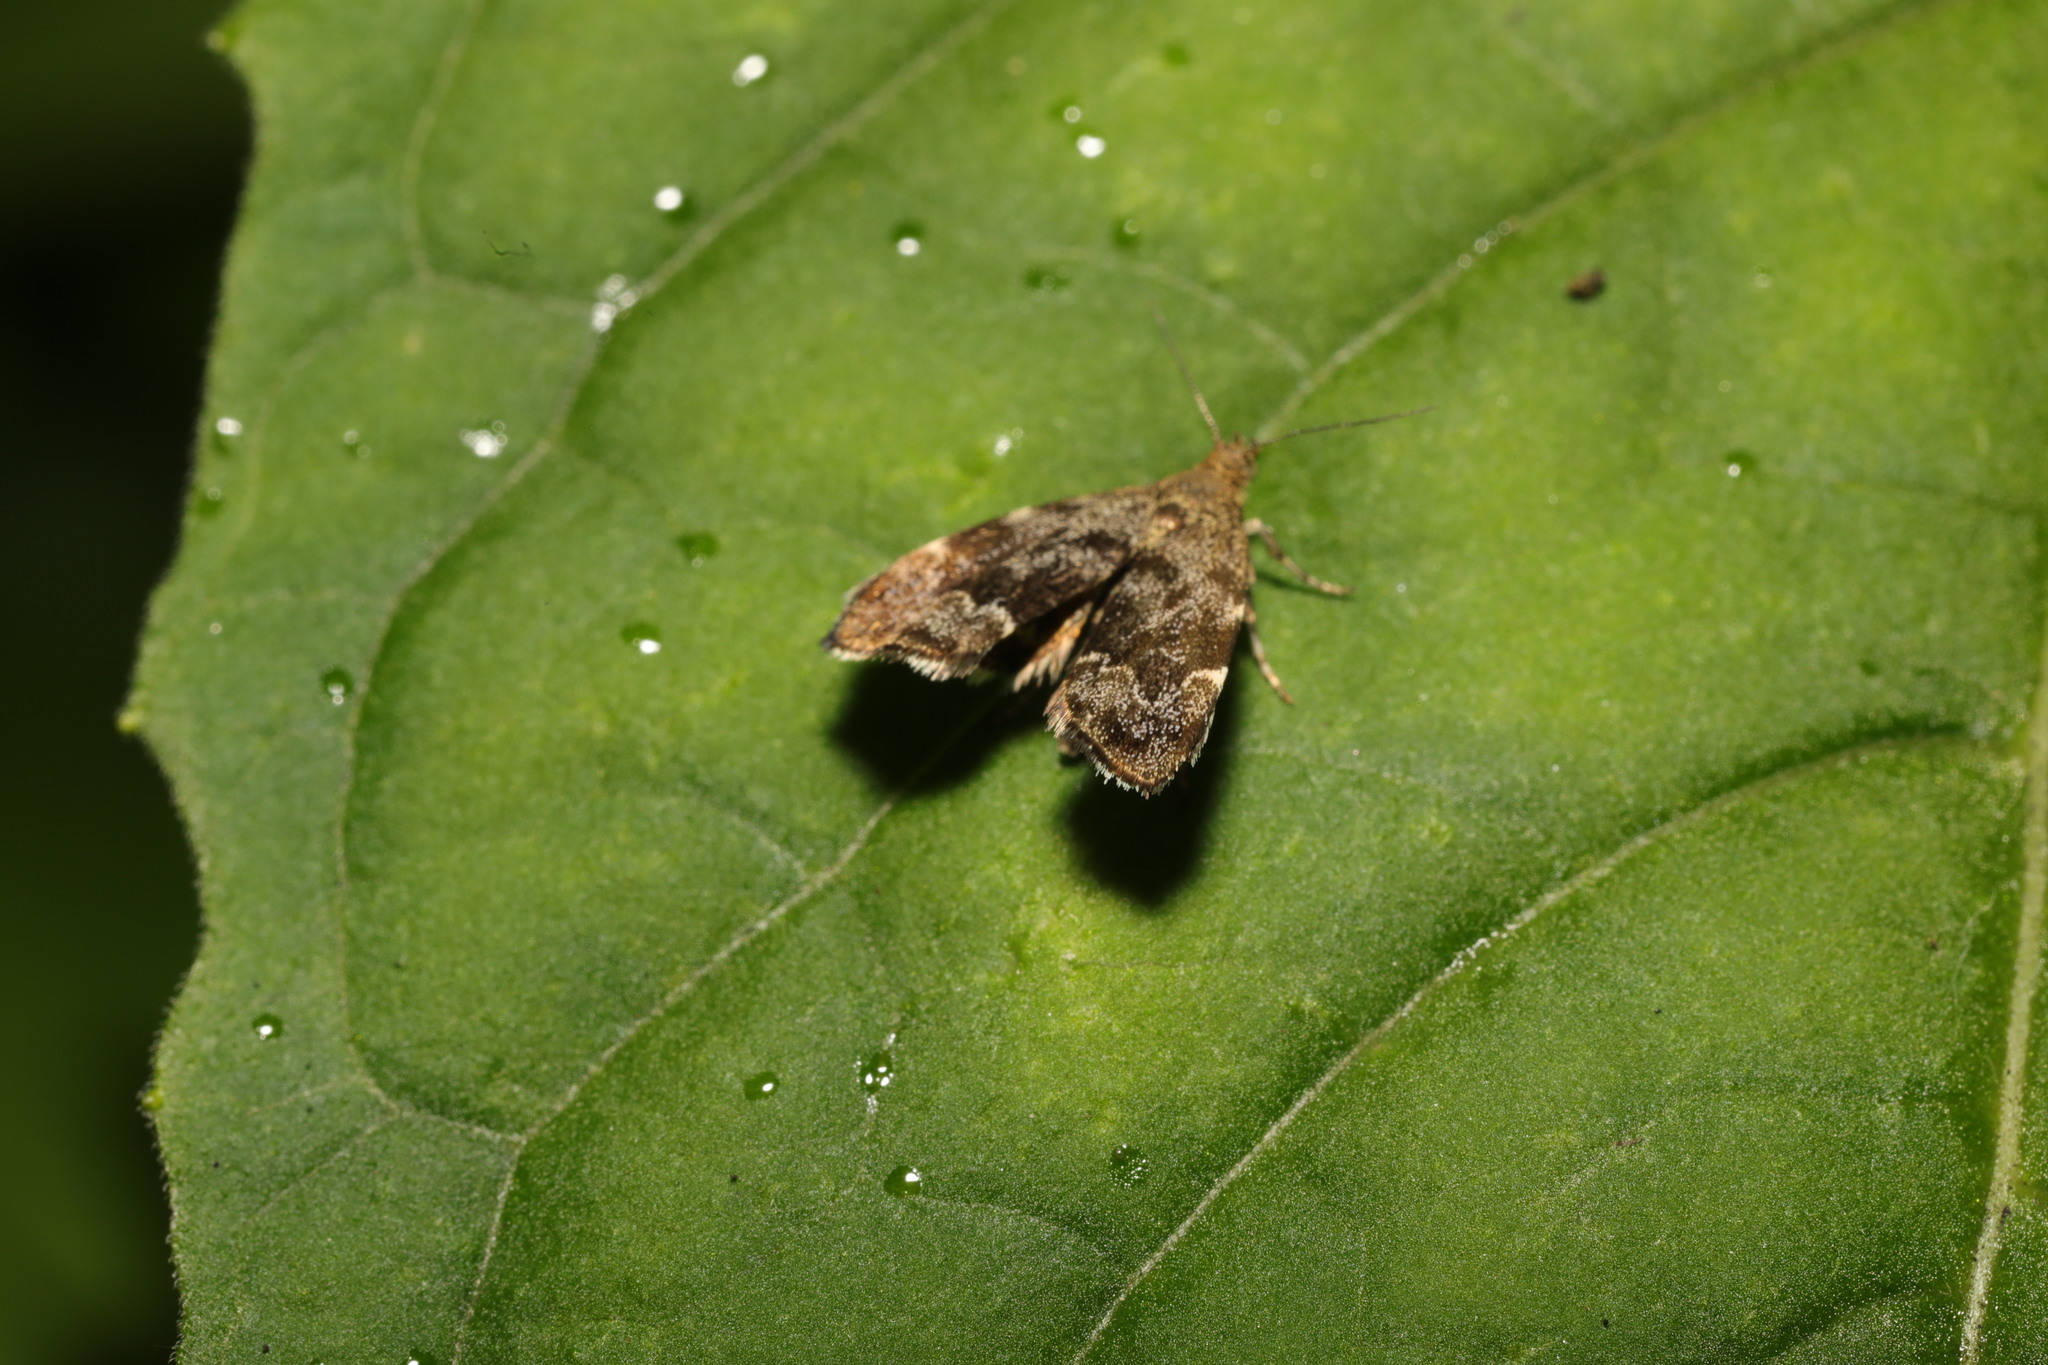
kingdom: Animalia
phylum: Arthropoda
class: Insecta
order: Lepidoptera
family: Choreutidae
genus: Anthophila
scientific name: Anthophila fabriciana
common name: Nettle-tap
